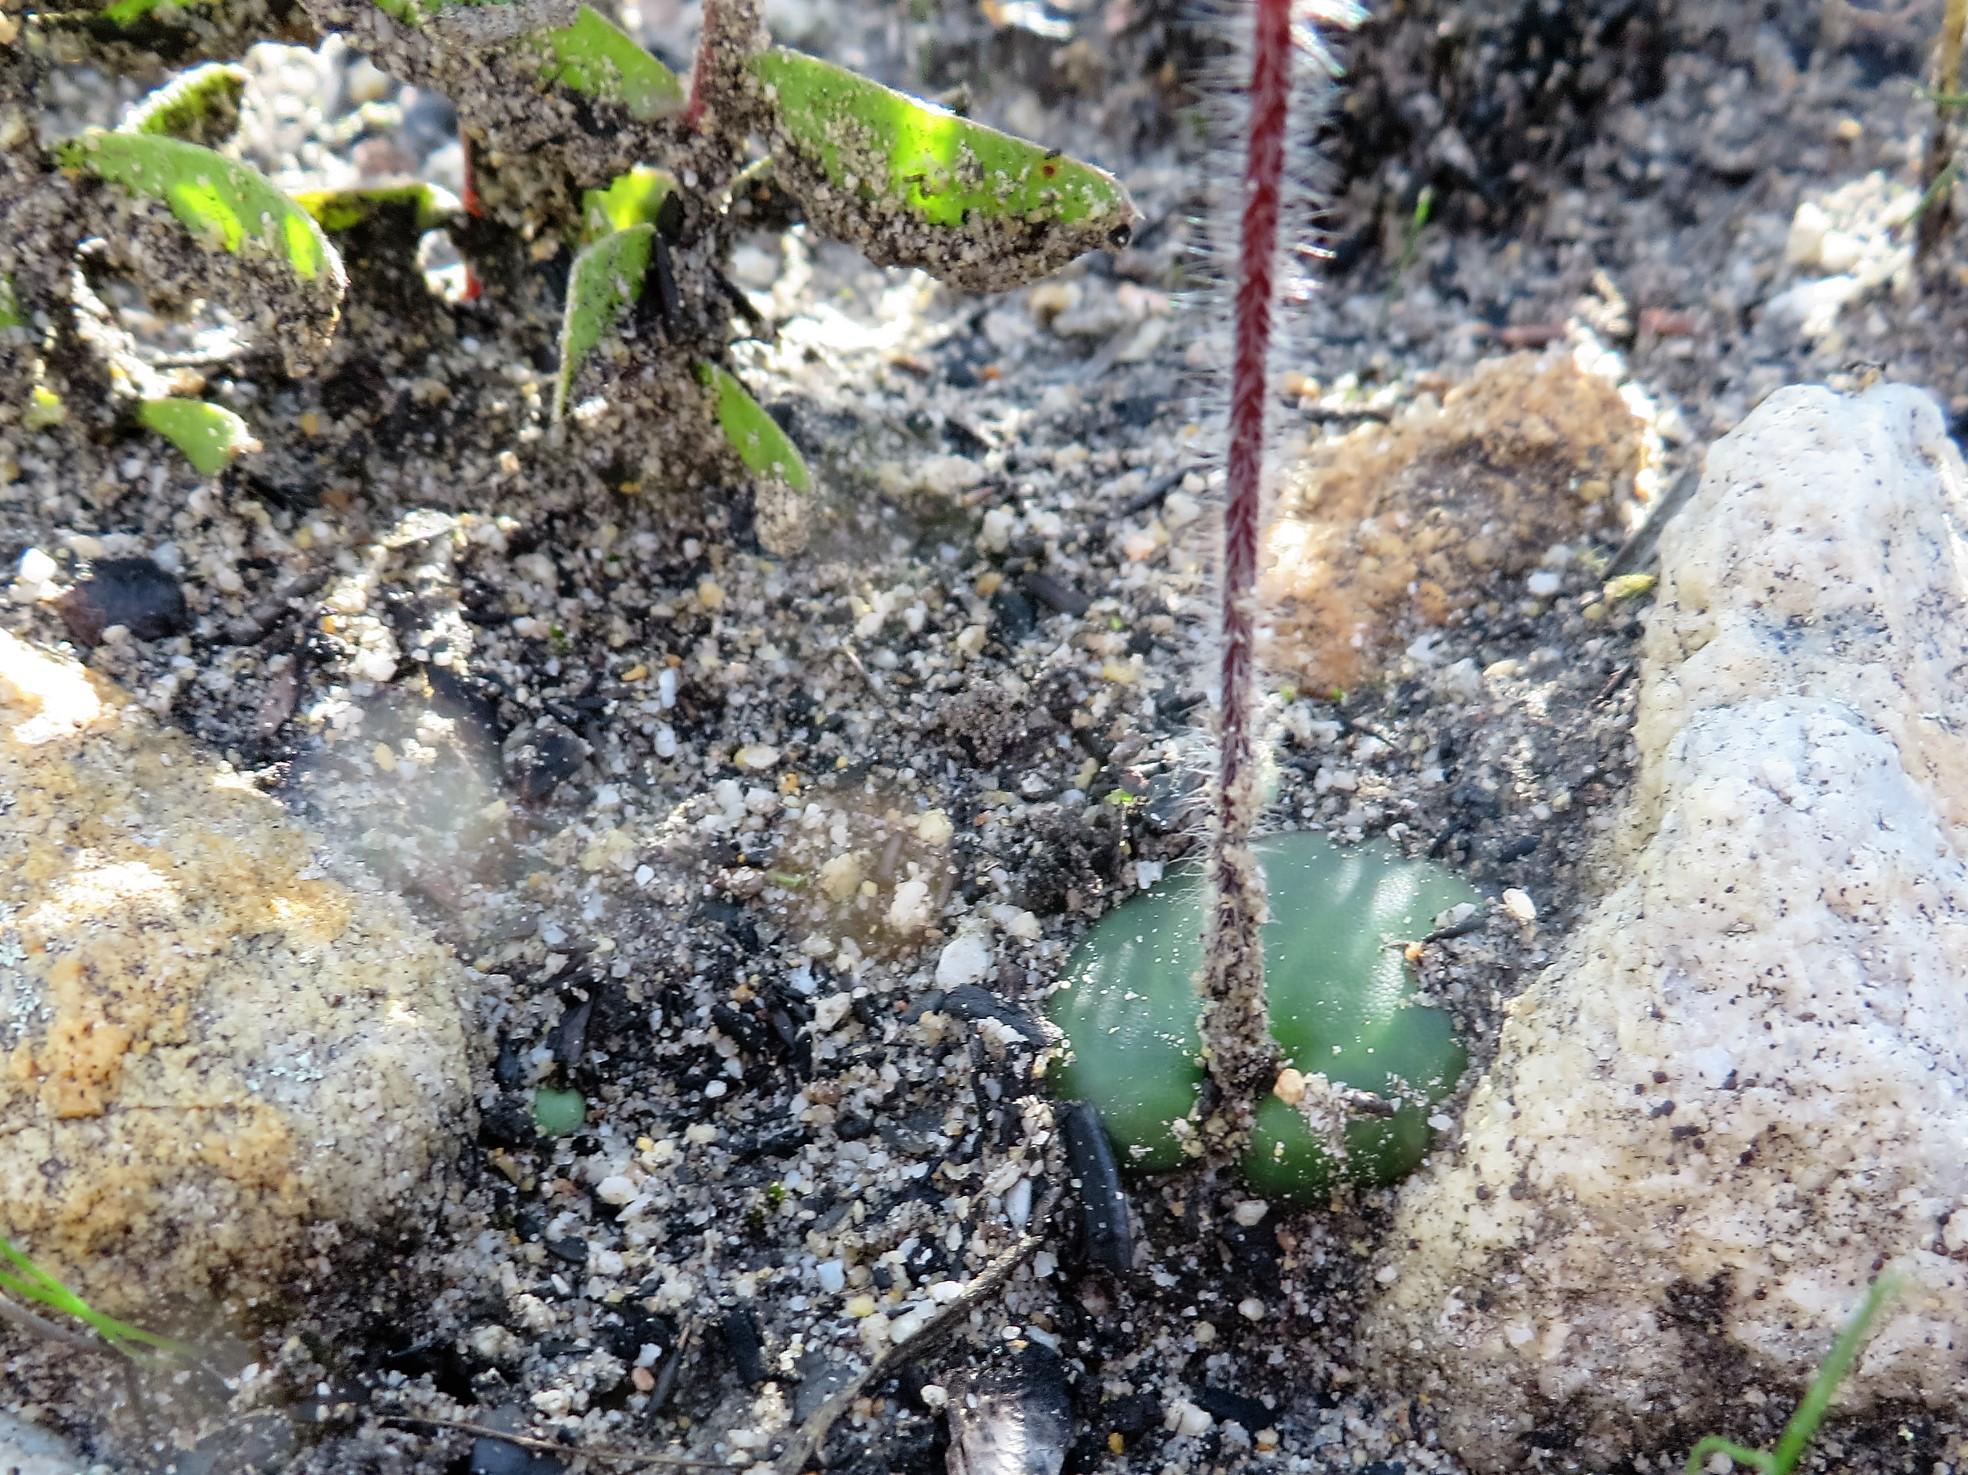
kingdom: Plantae
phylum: Tracheophyta
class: Liliopsida
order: Asparagales
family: Orchidaceae
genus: Holothrix
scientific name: Holothrix burmanniana
